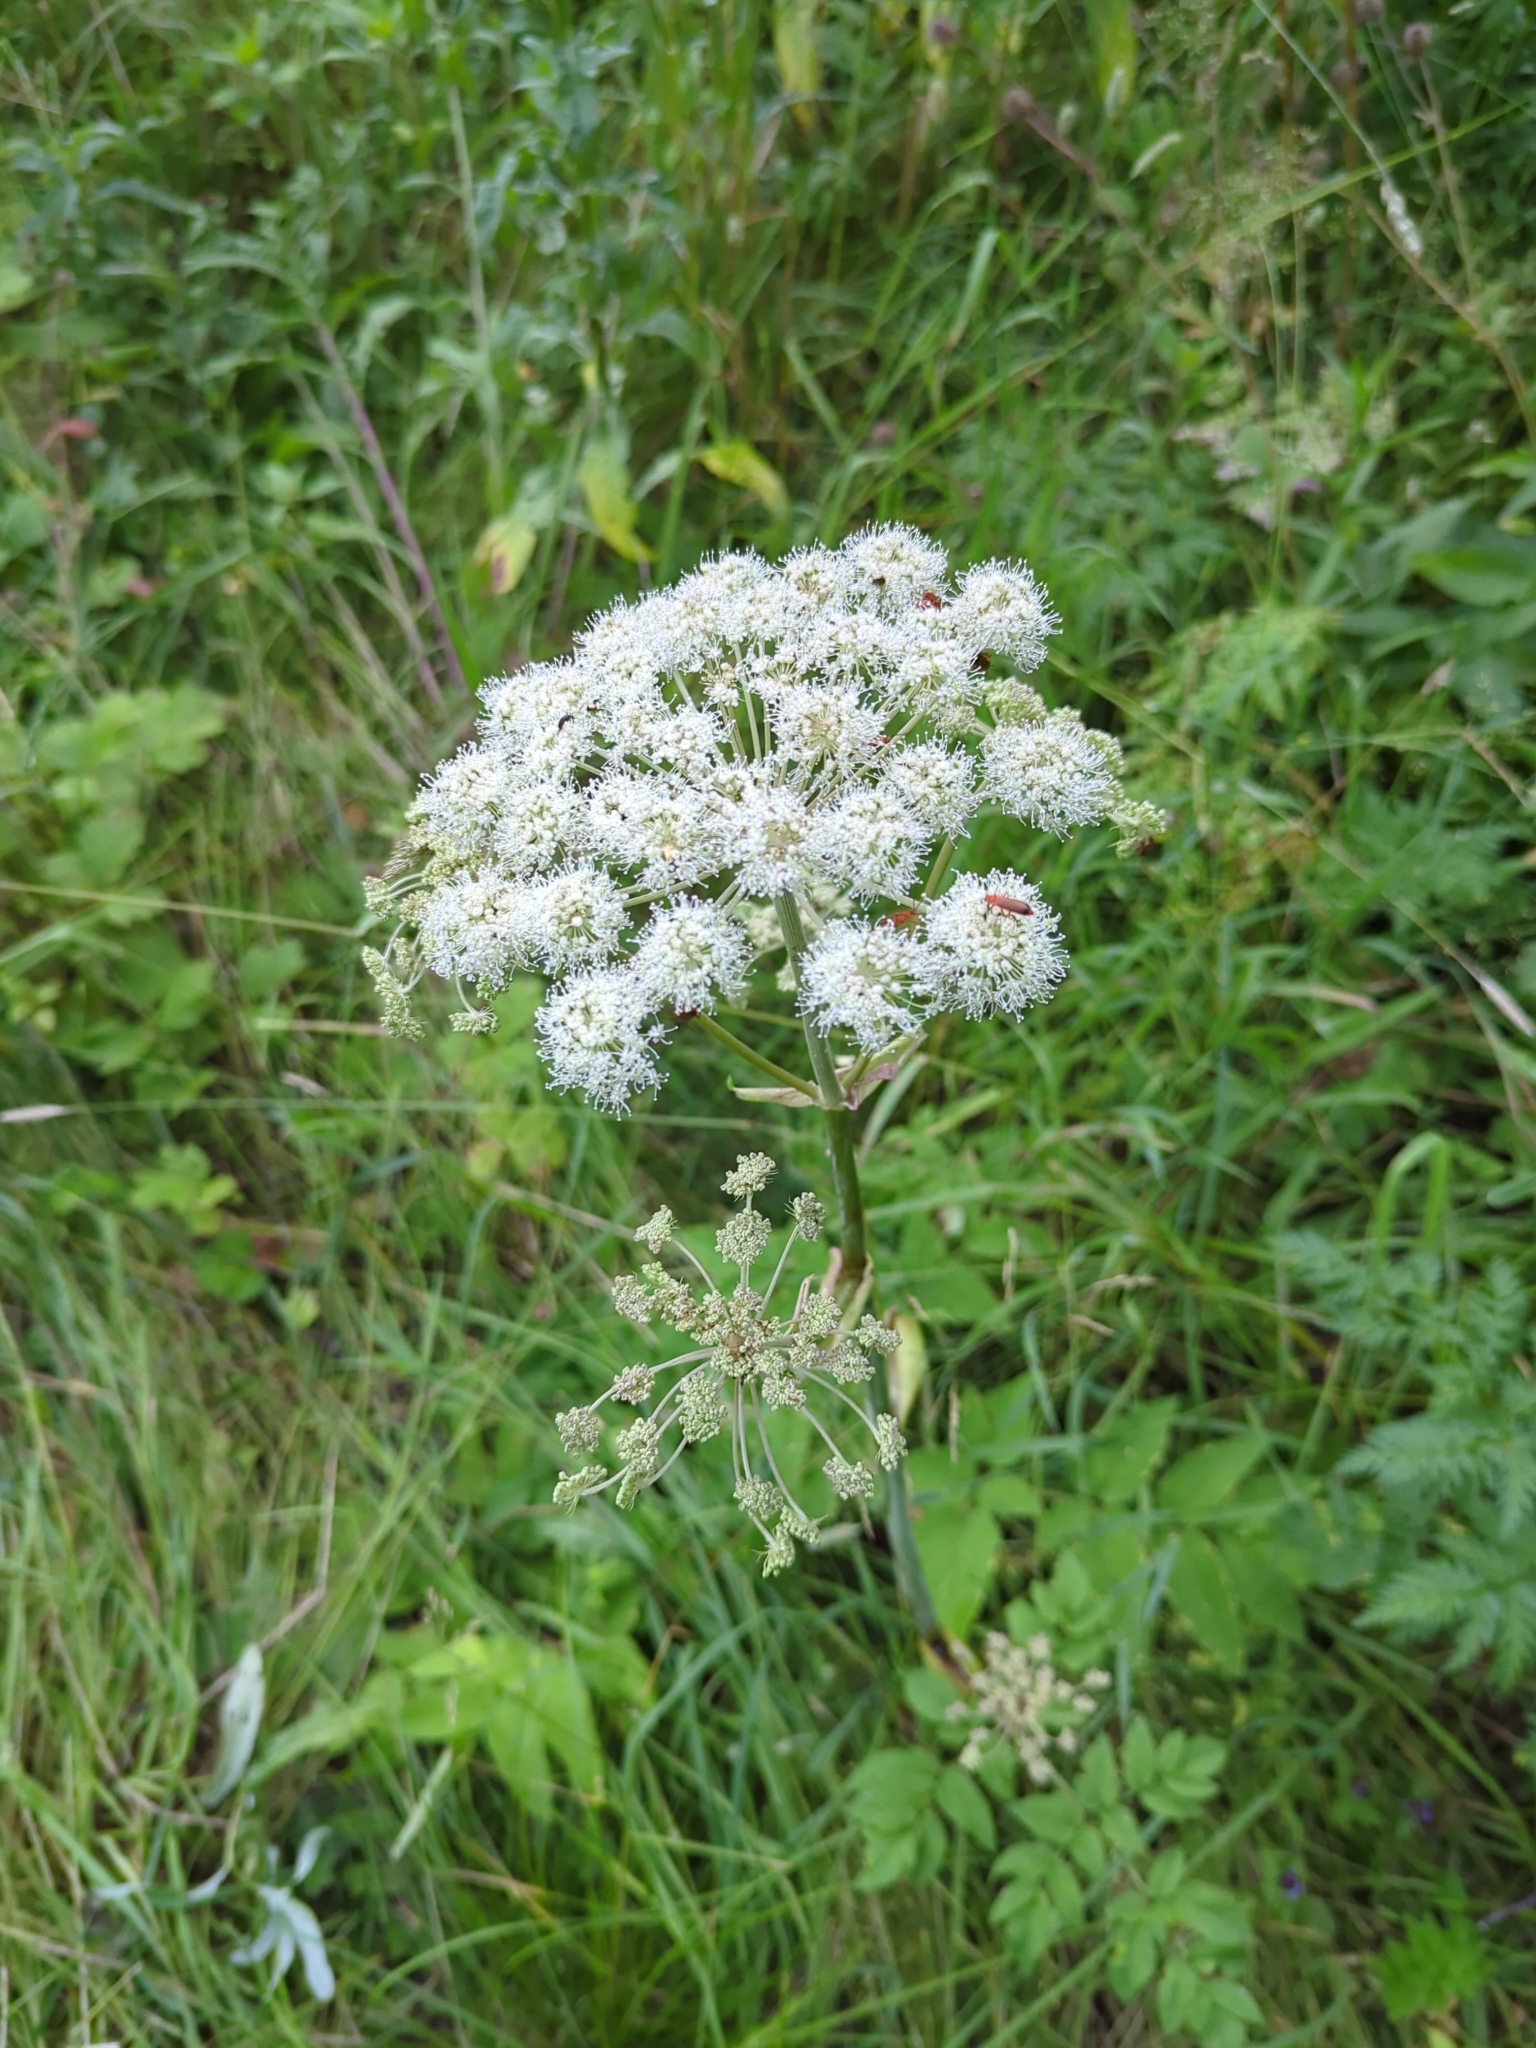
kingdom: Plantae
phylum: Tracheophyta
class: Magnoliopsida
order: Apiales
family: Apiaceae
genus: Angelica
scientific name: Angelica sylvestris
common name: Wild angelica
